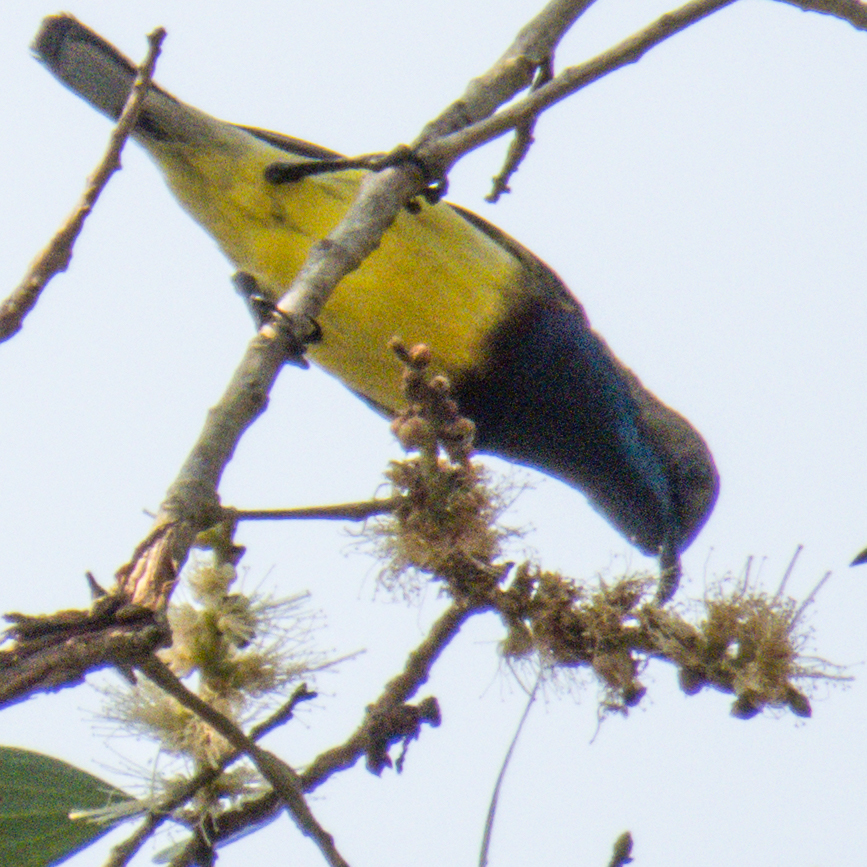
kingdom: Animalia
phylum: Chordata
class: Aves
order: Passeriformes
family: Nectariniidae
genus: Cinnyris
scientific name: Cinnyris
